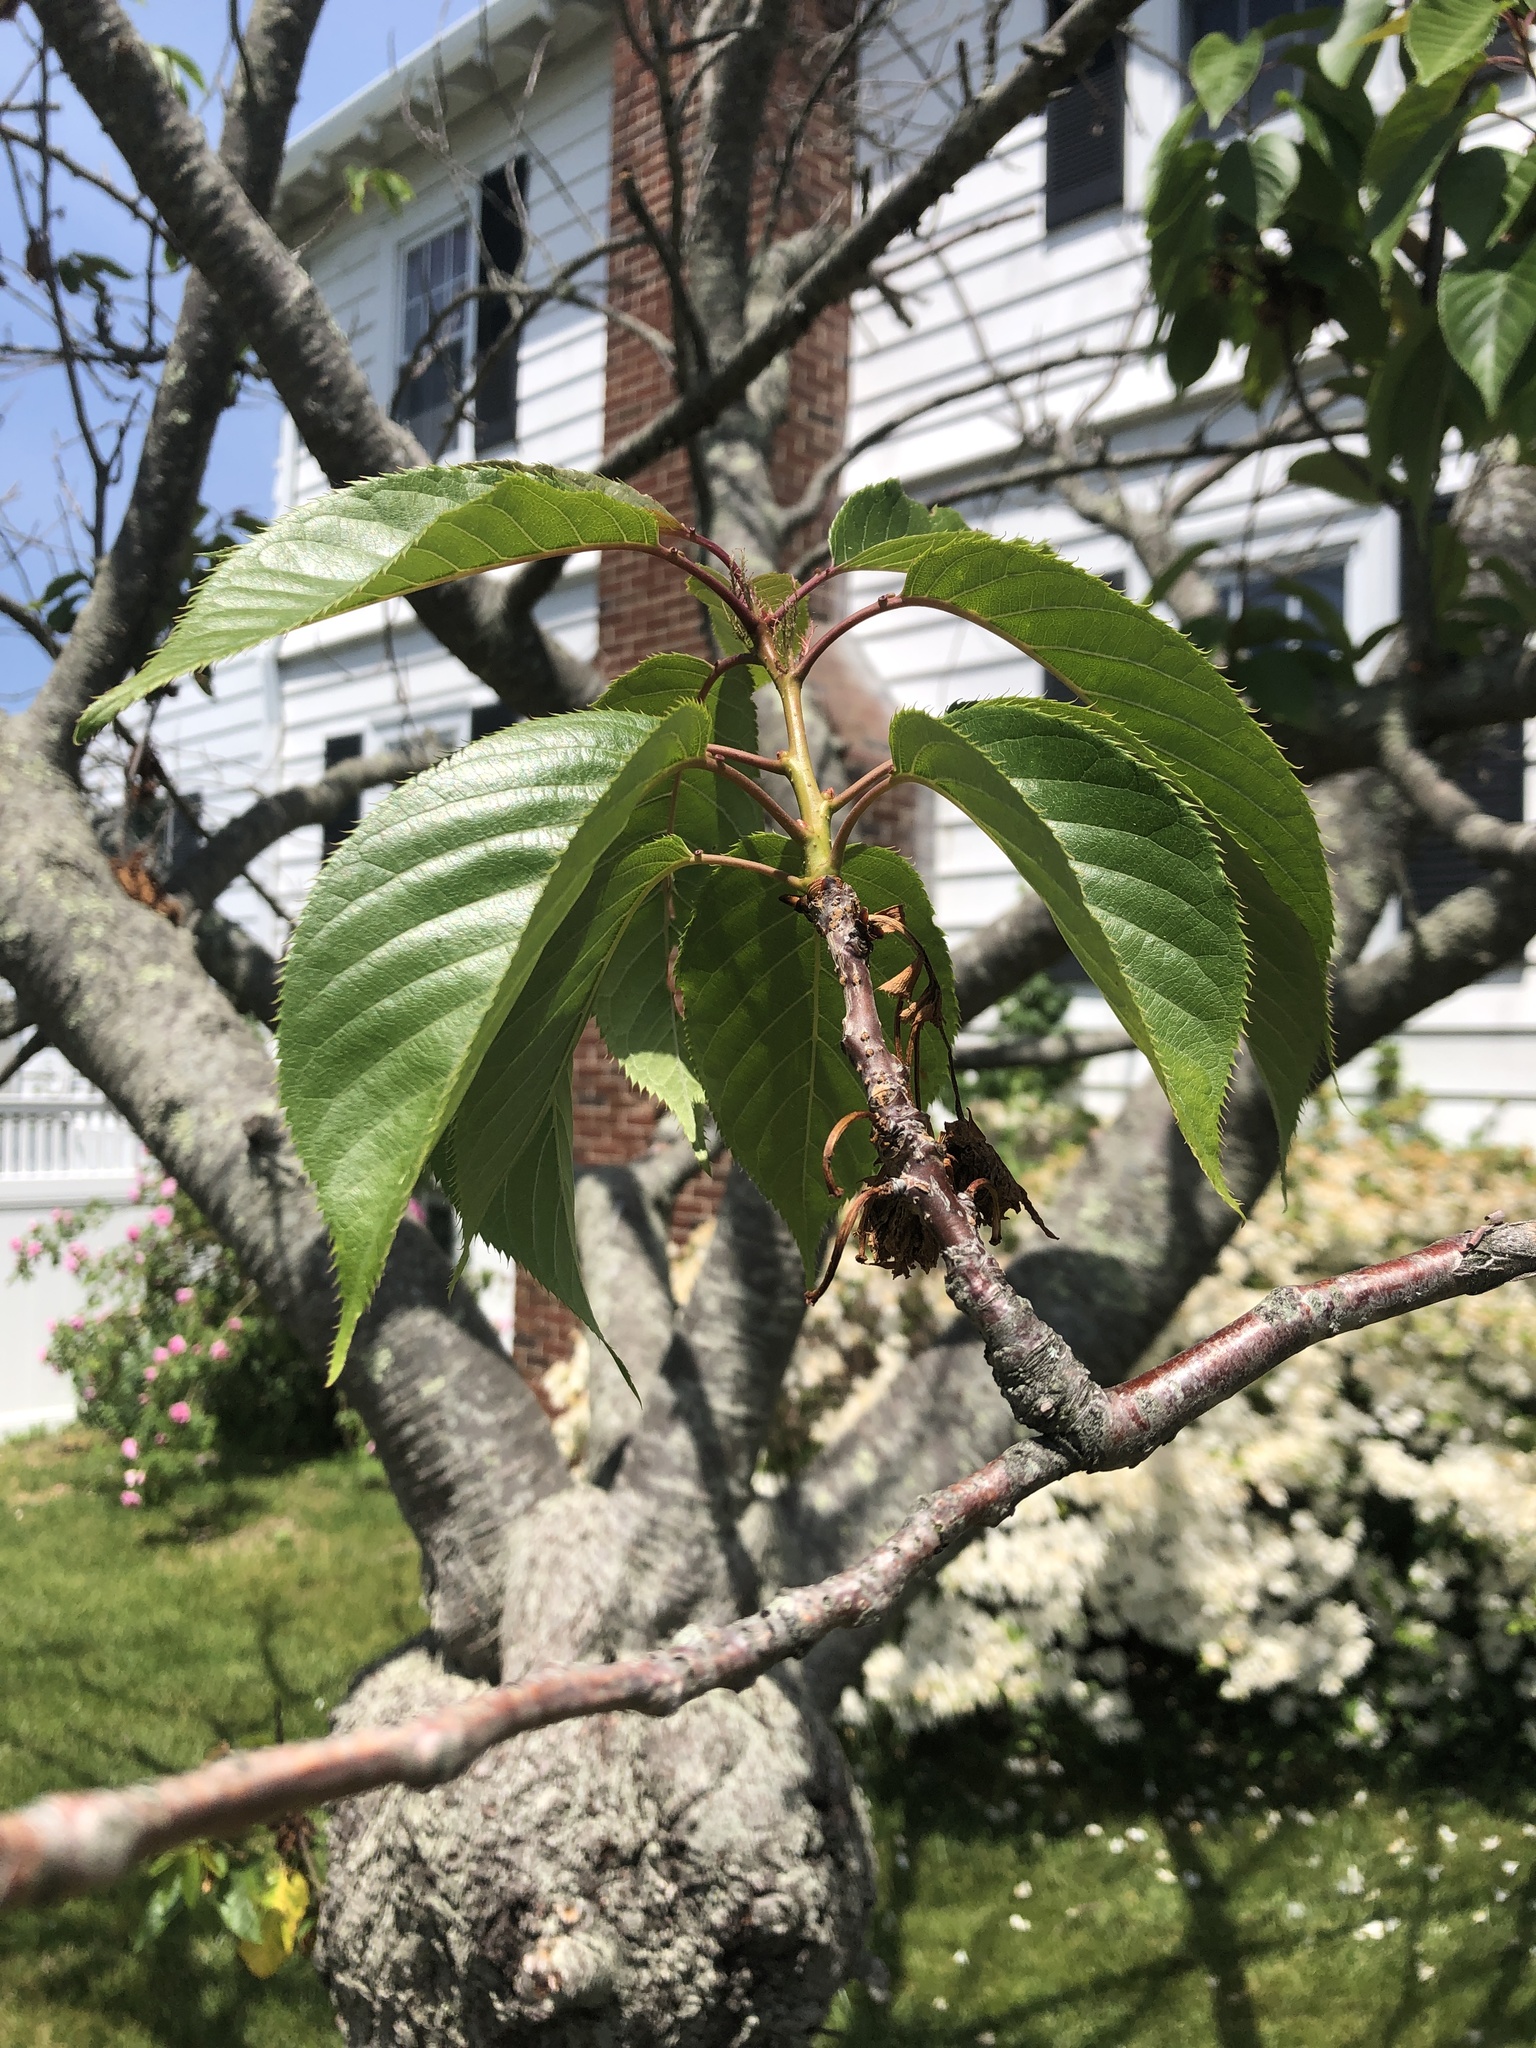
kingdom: Plantae
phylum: Tracheophyta
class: Magnoliopsida
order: Rosales
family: Rosaceae
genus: Prunus
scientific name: Prunus pensylvanica
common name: Pin cherry
